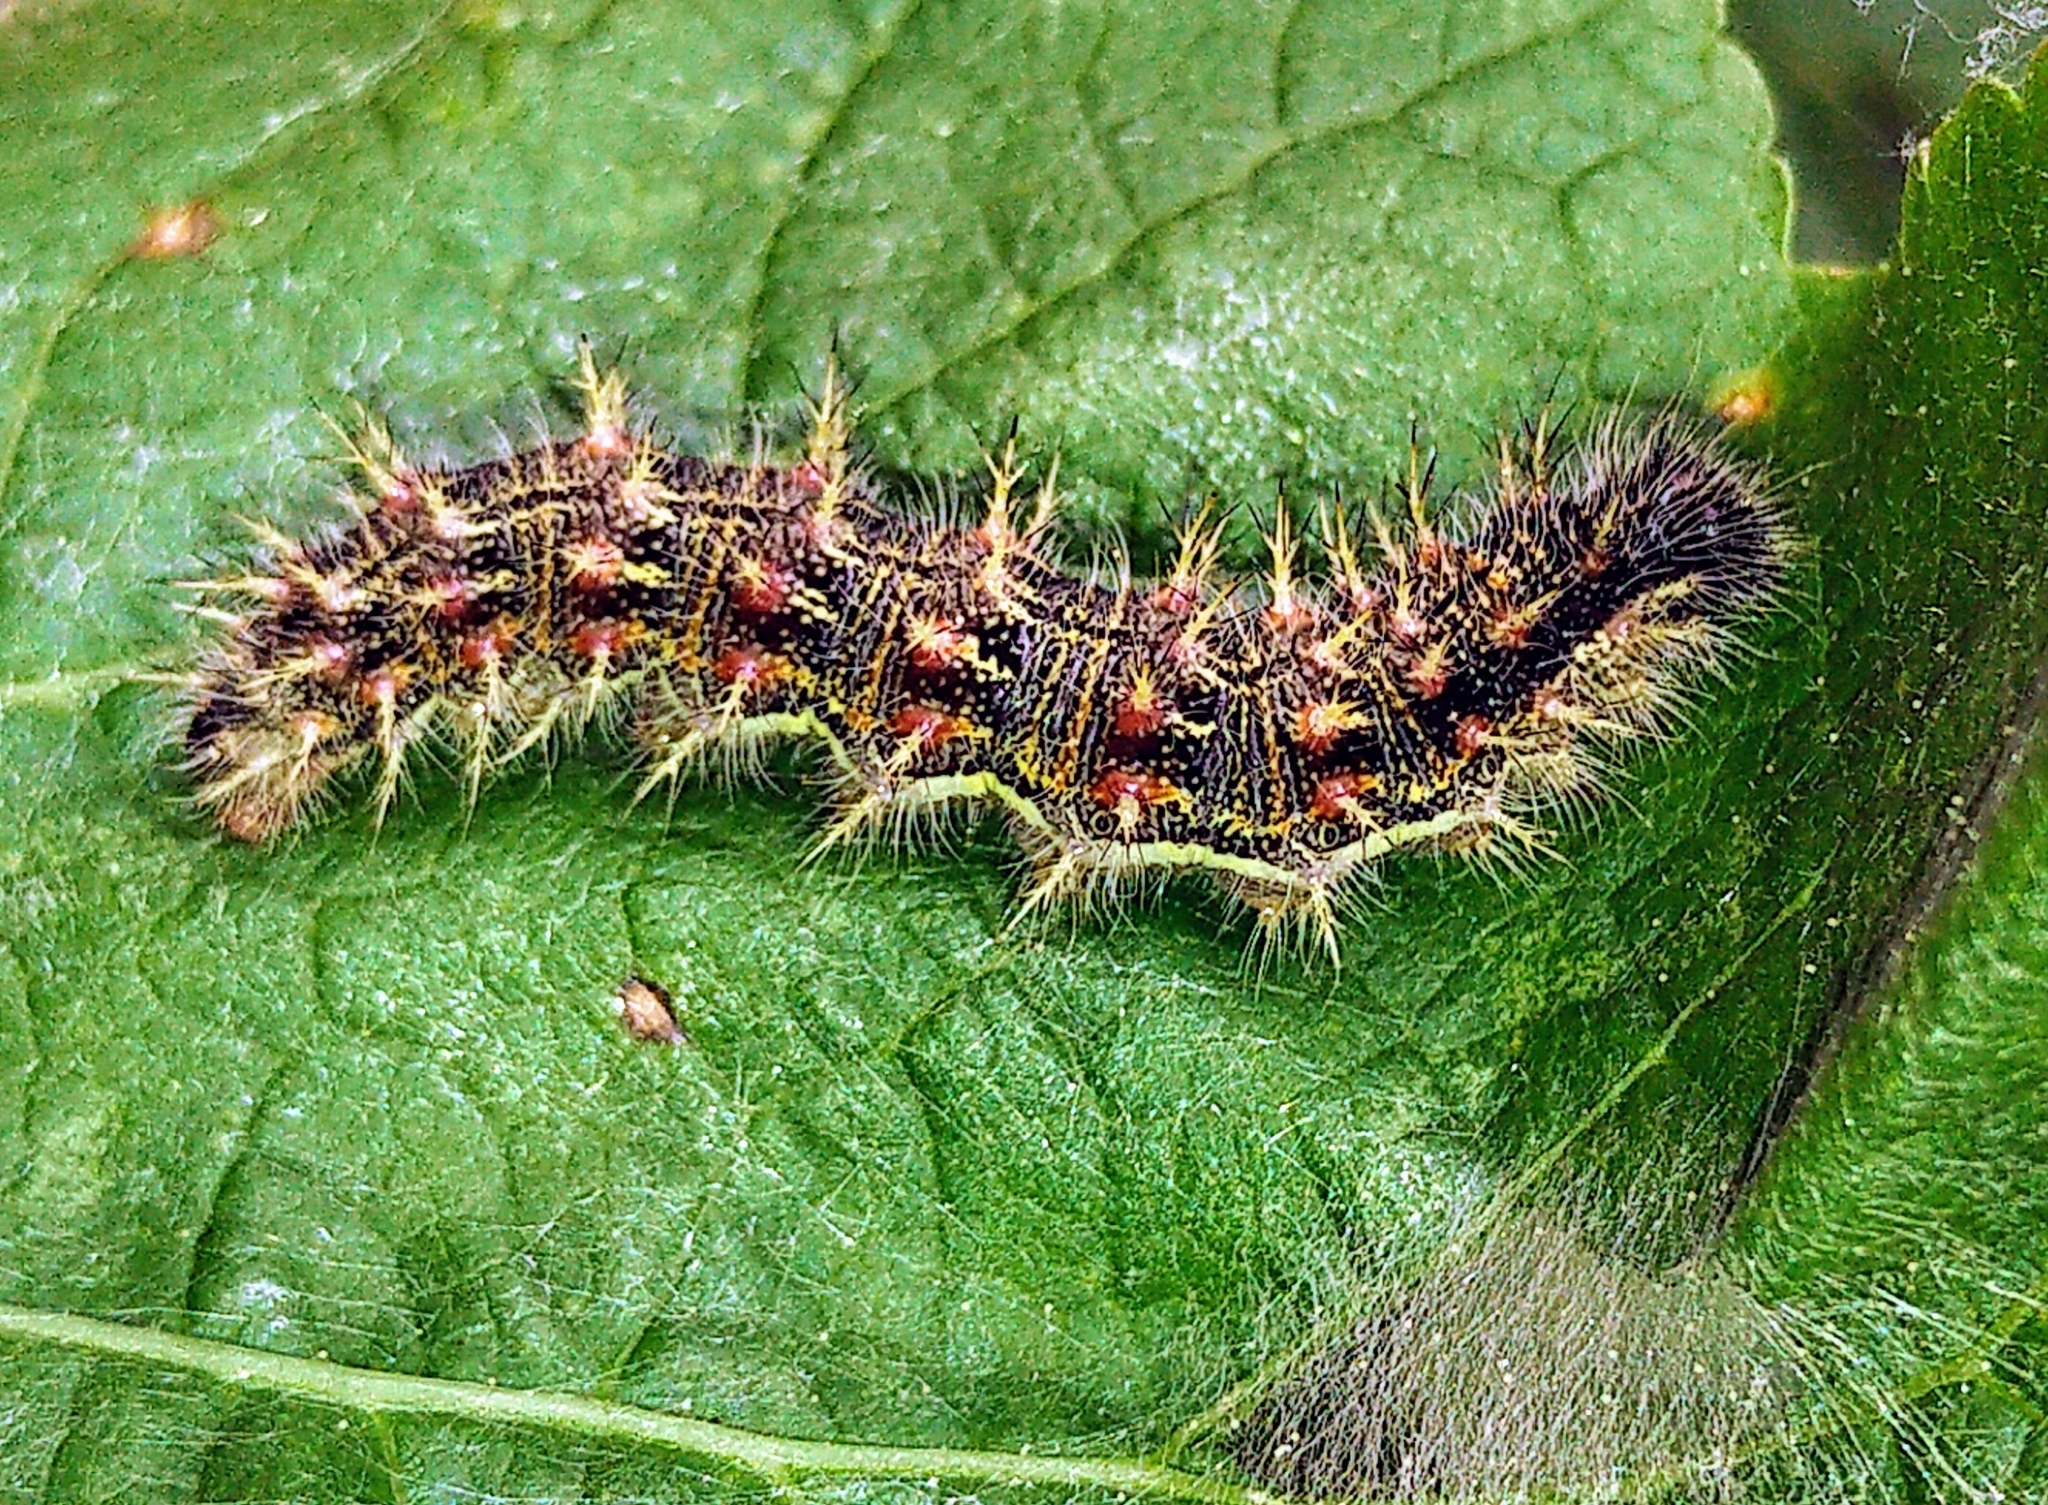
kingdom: Animalia
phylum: Arthropoda
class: Insecta
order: Lepidoptera
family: Nymphalidae
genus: Vanessa
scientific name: Vanessa cardui
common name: Painted lady
